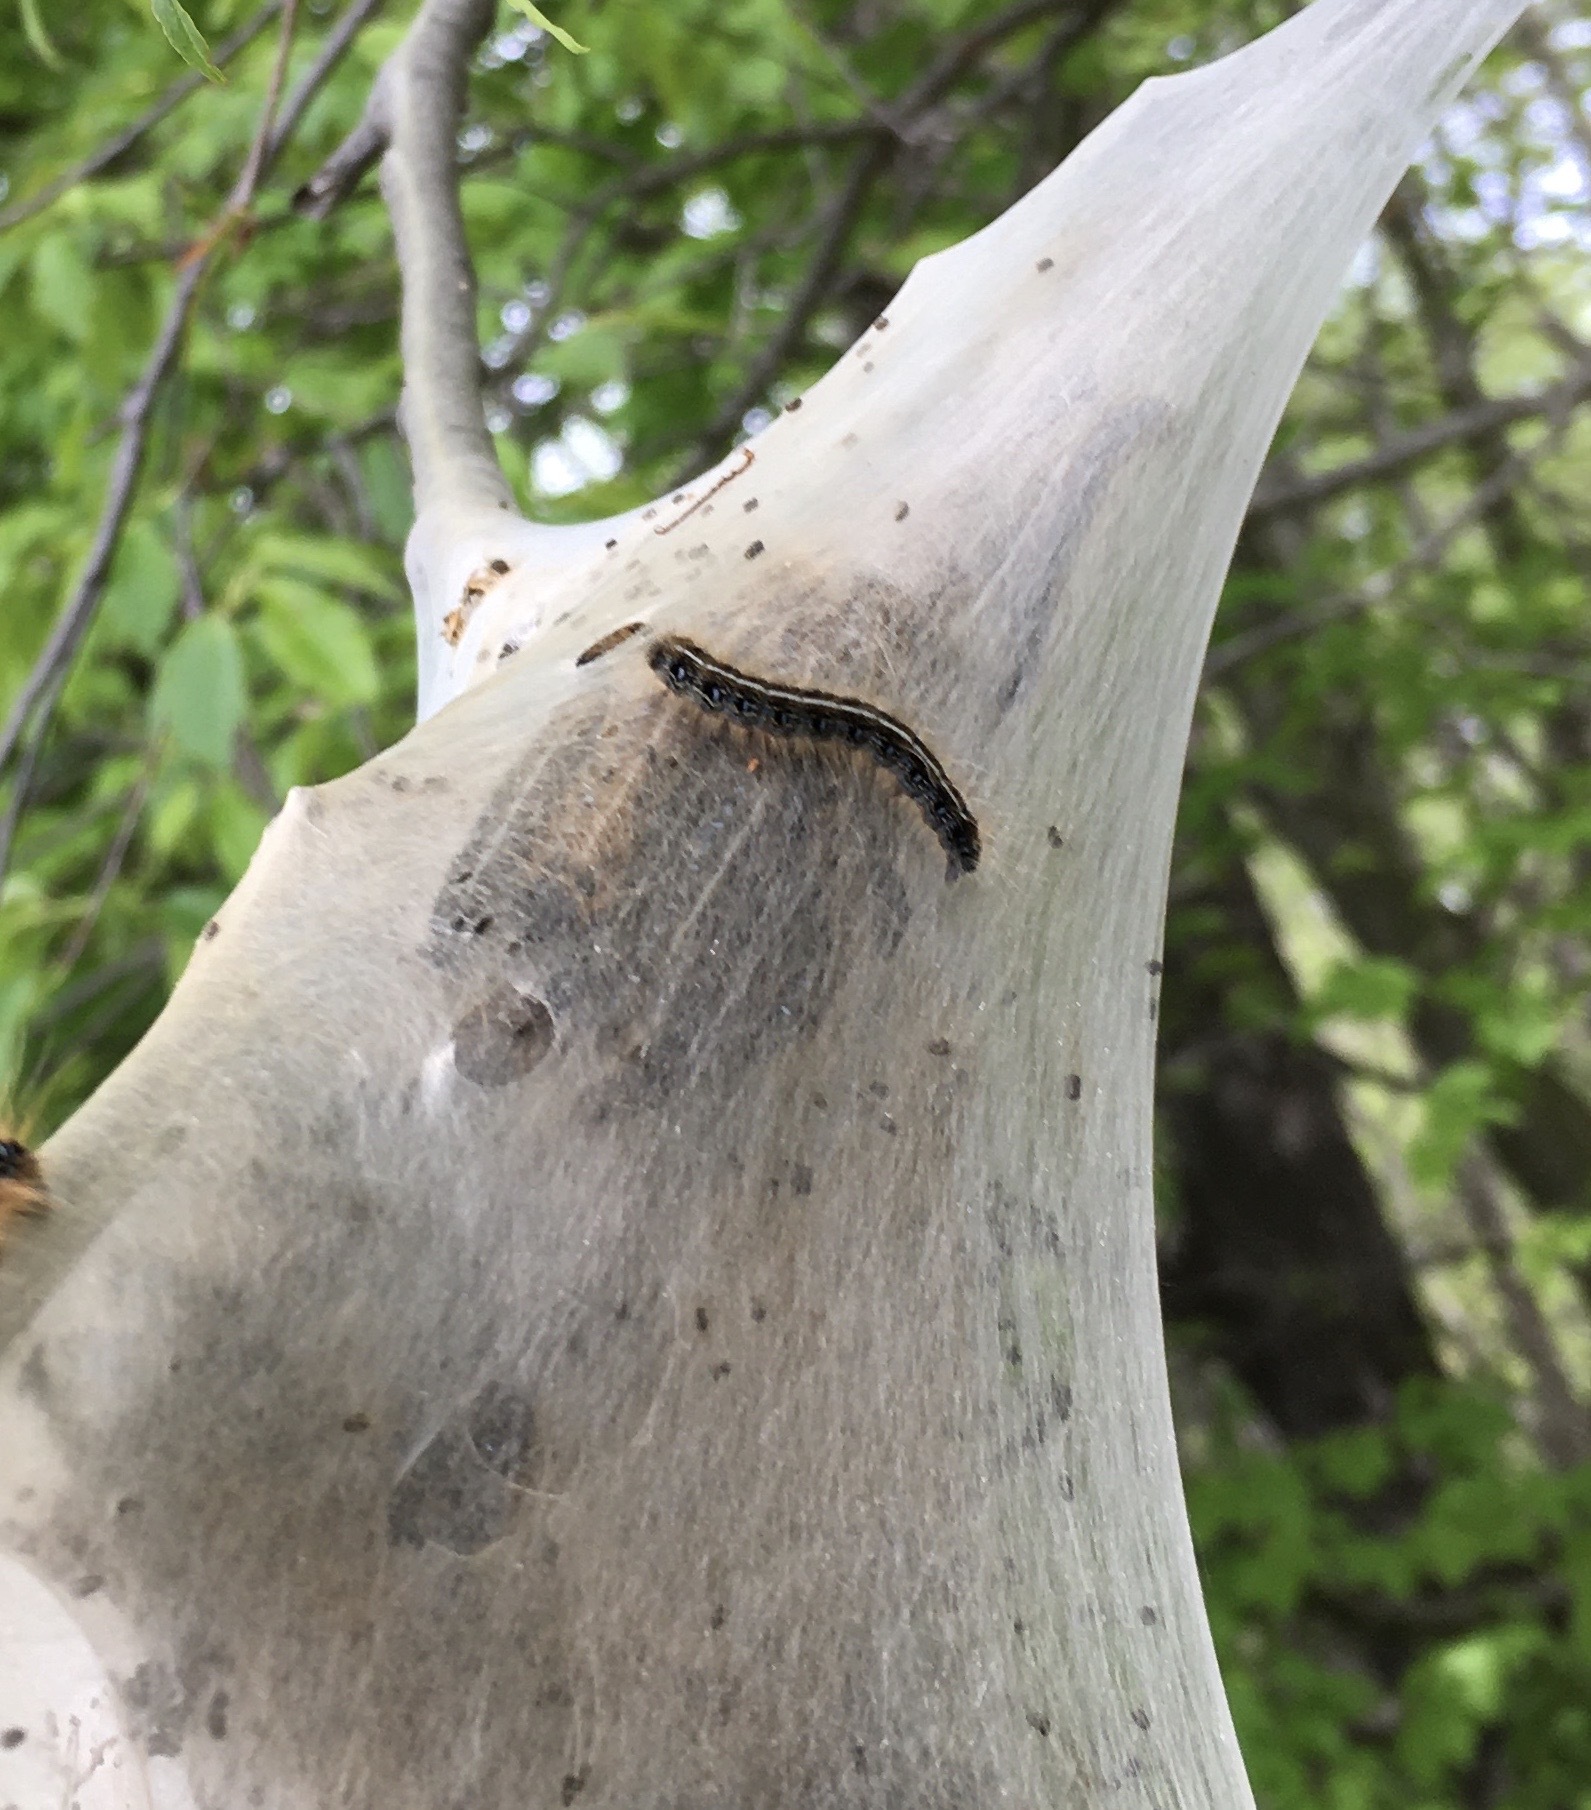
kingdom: Animalia
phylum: Arthropoda
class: Insecta
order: Lepidoptera
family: Lasiocampidae
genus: Malacosoma
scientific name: Malacosoma americana
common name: Eastern tent caterpillar moth
